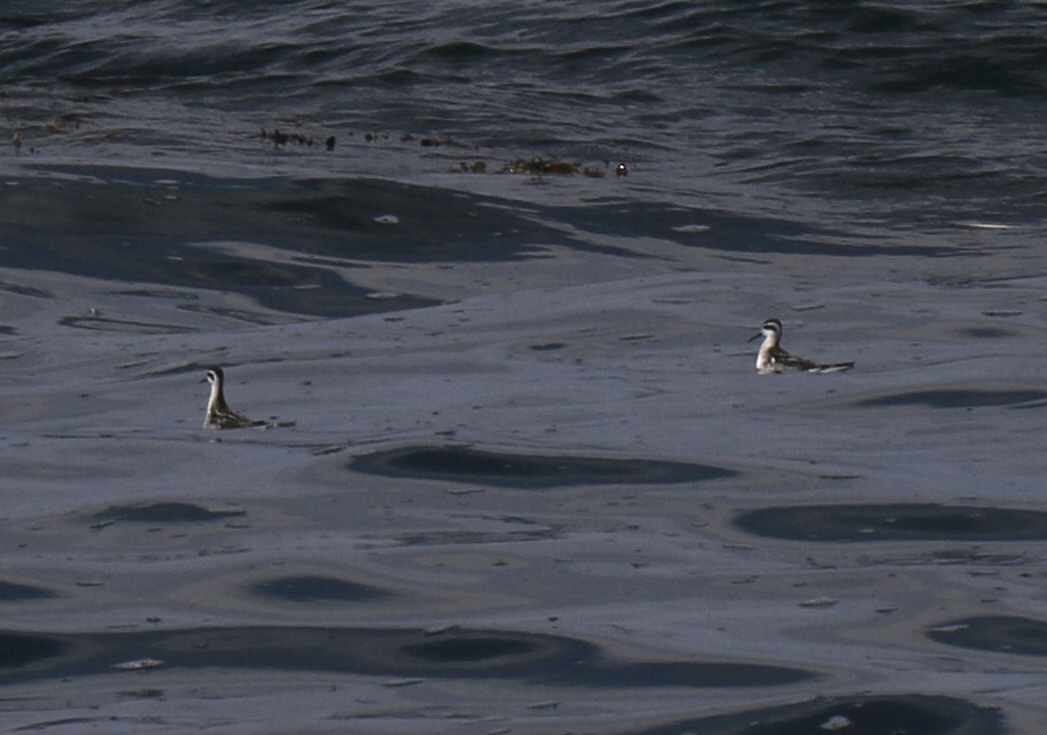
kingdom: Animalia
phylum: Chordata
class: Aves
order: Charadriiformes
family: Scolopacidae
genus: Phalaropus
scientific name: Phalaropus lobatus
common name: Red-necked phalarope
